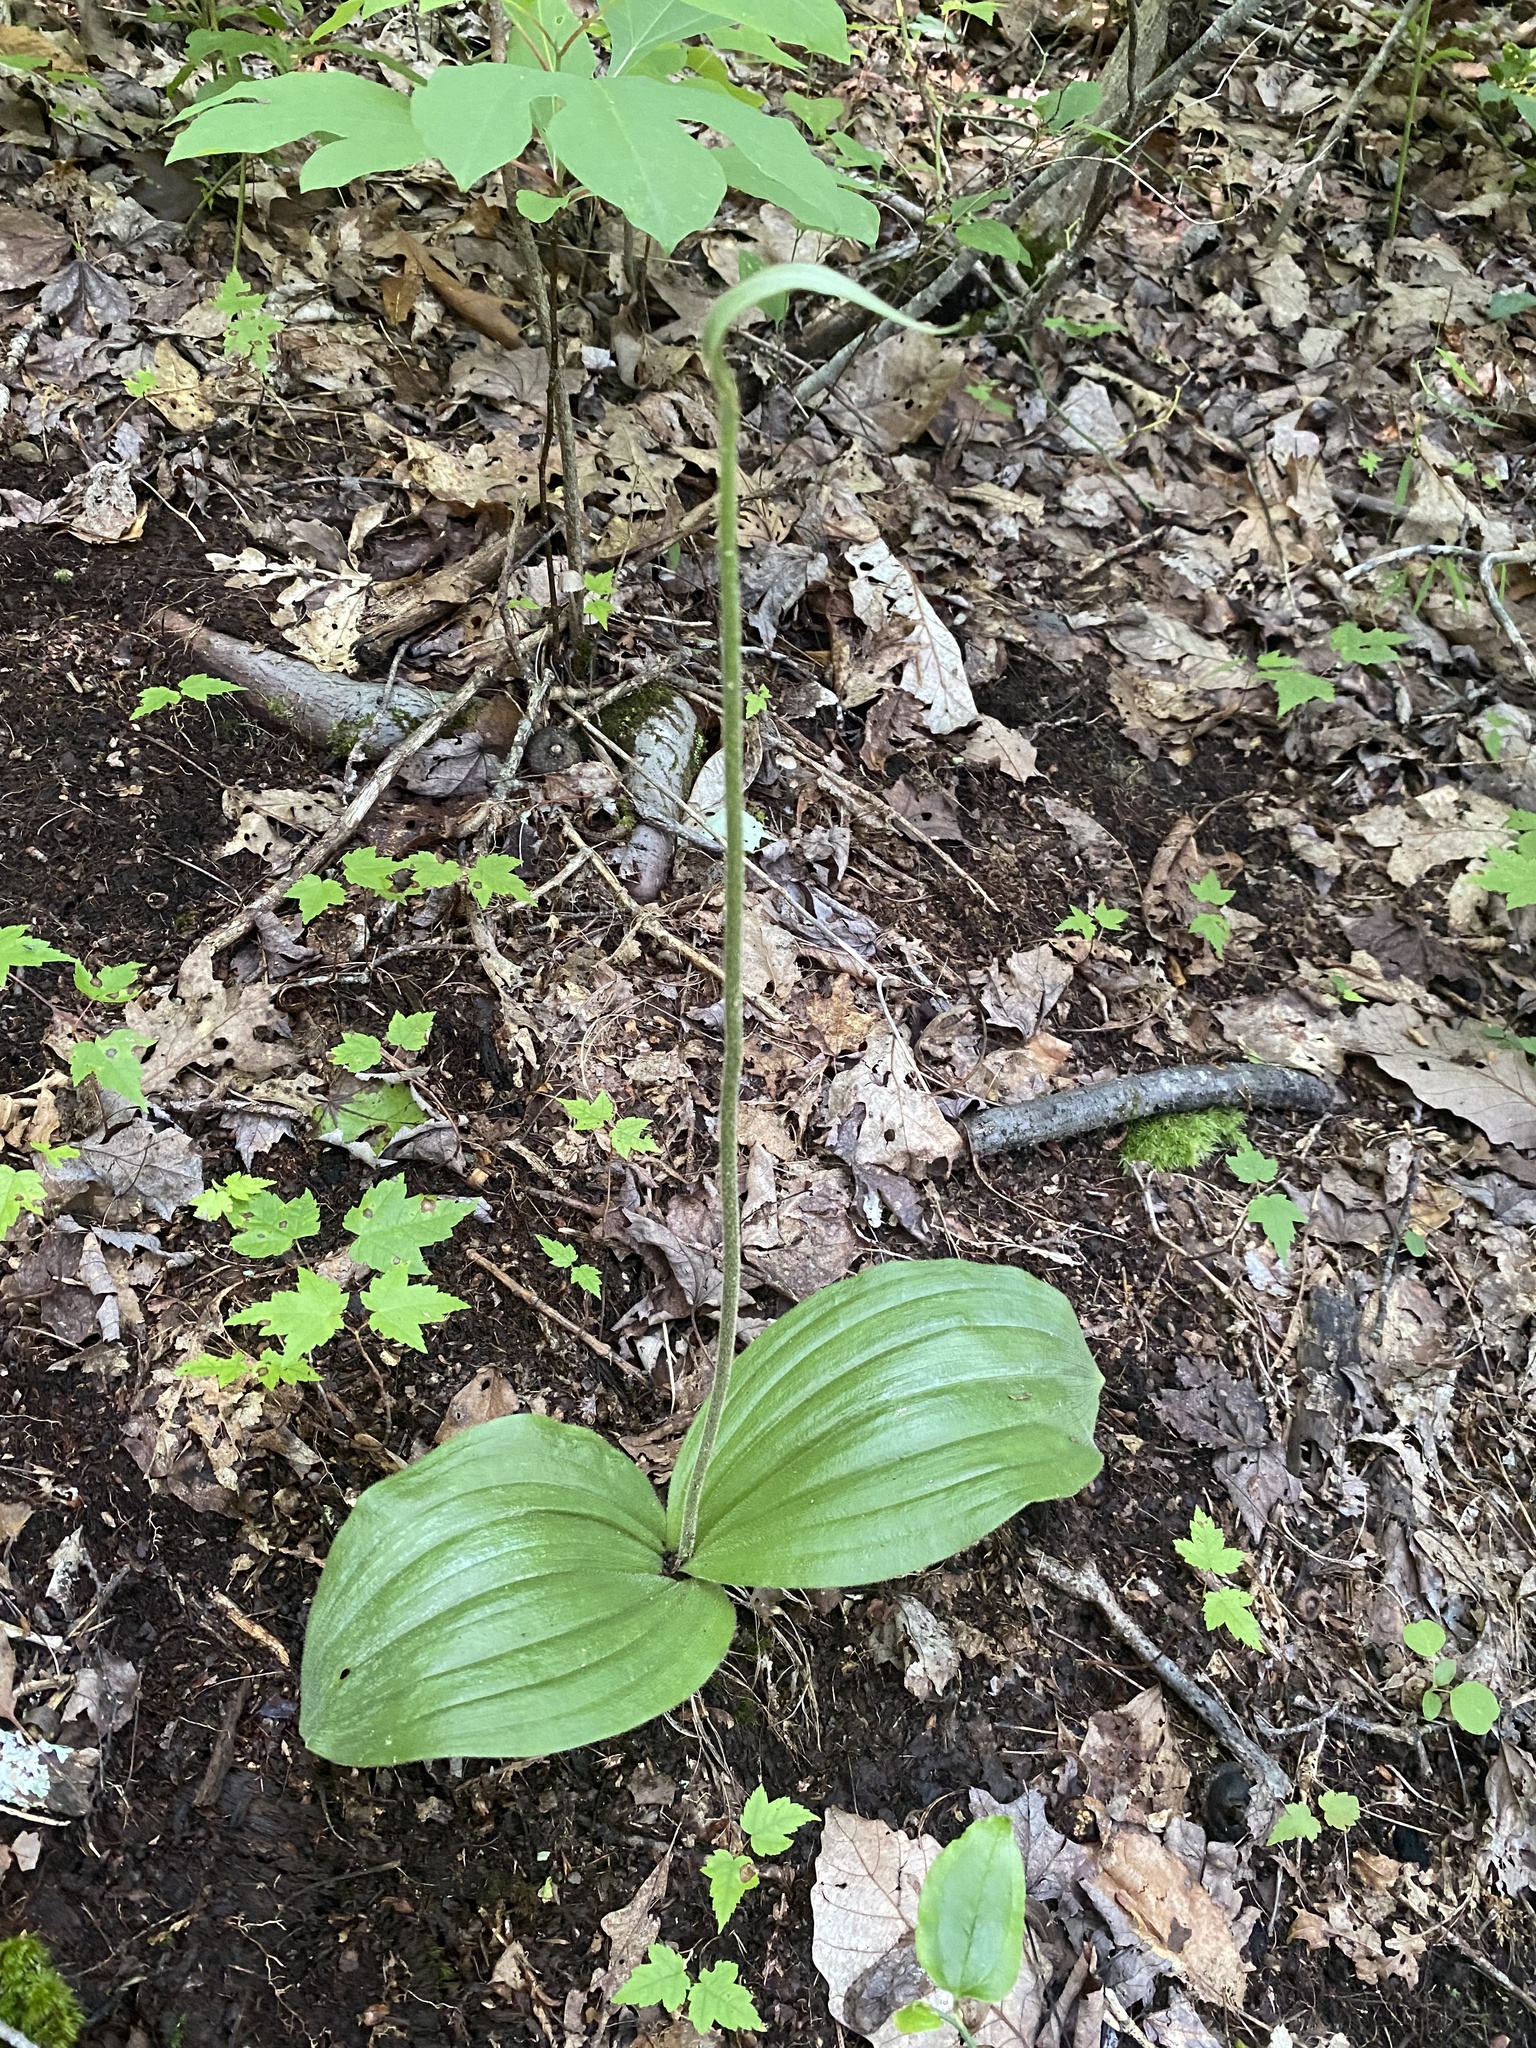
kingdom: Plantae
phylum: Tracheophyta
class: Liliopsida
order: Asparagales
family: Orchidaceae
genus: Cypripedium
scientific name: Cypripedium acaule
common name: Pink lady's-slipper
